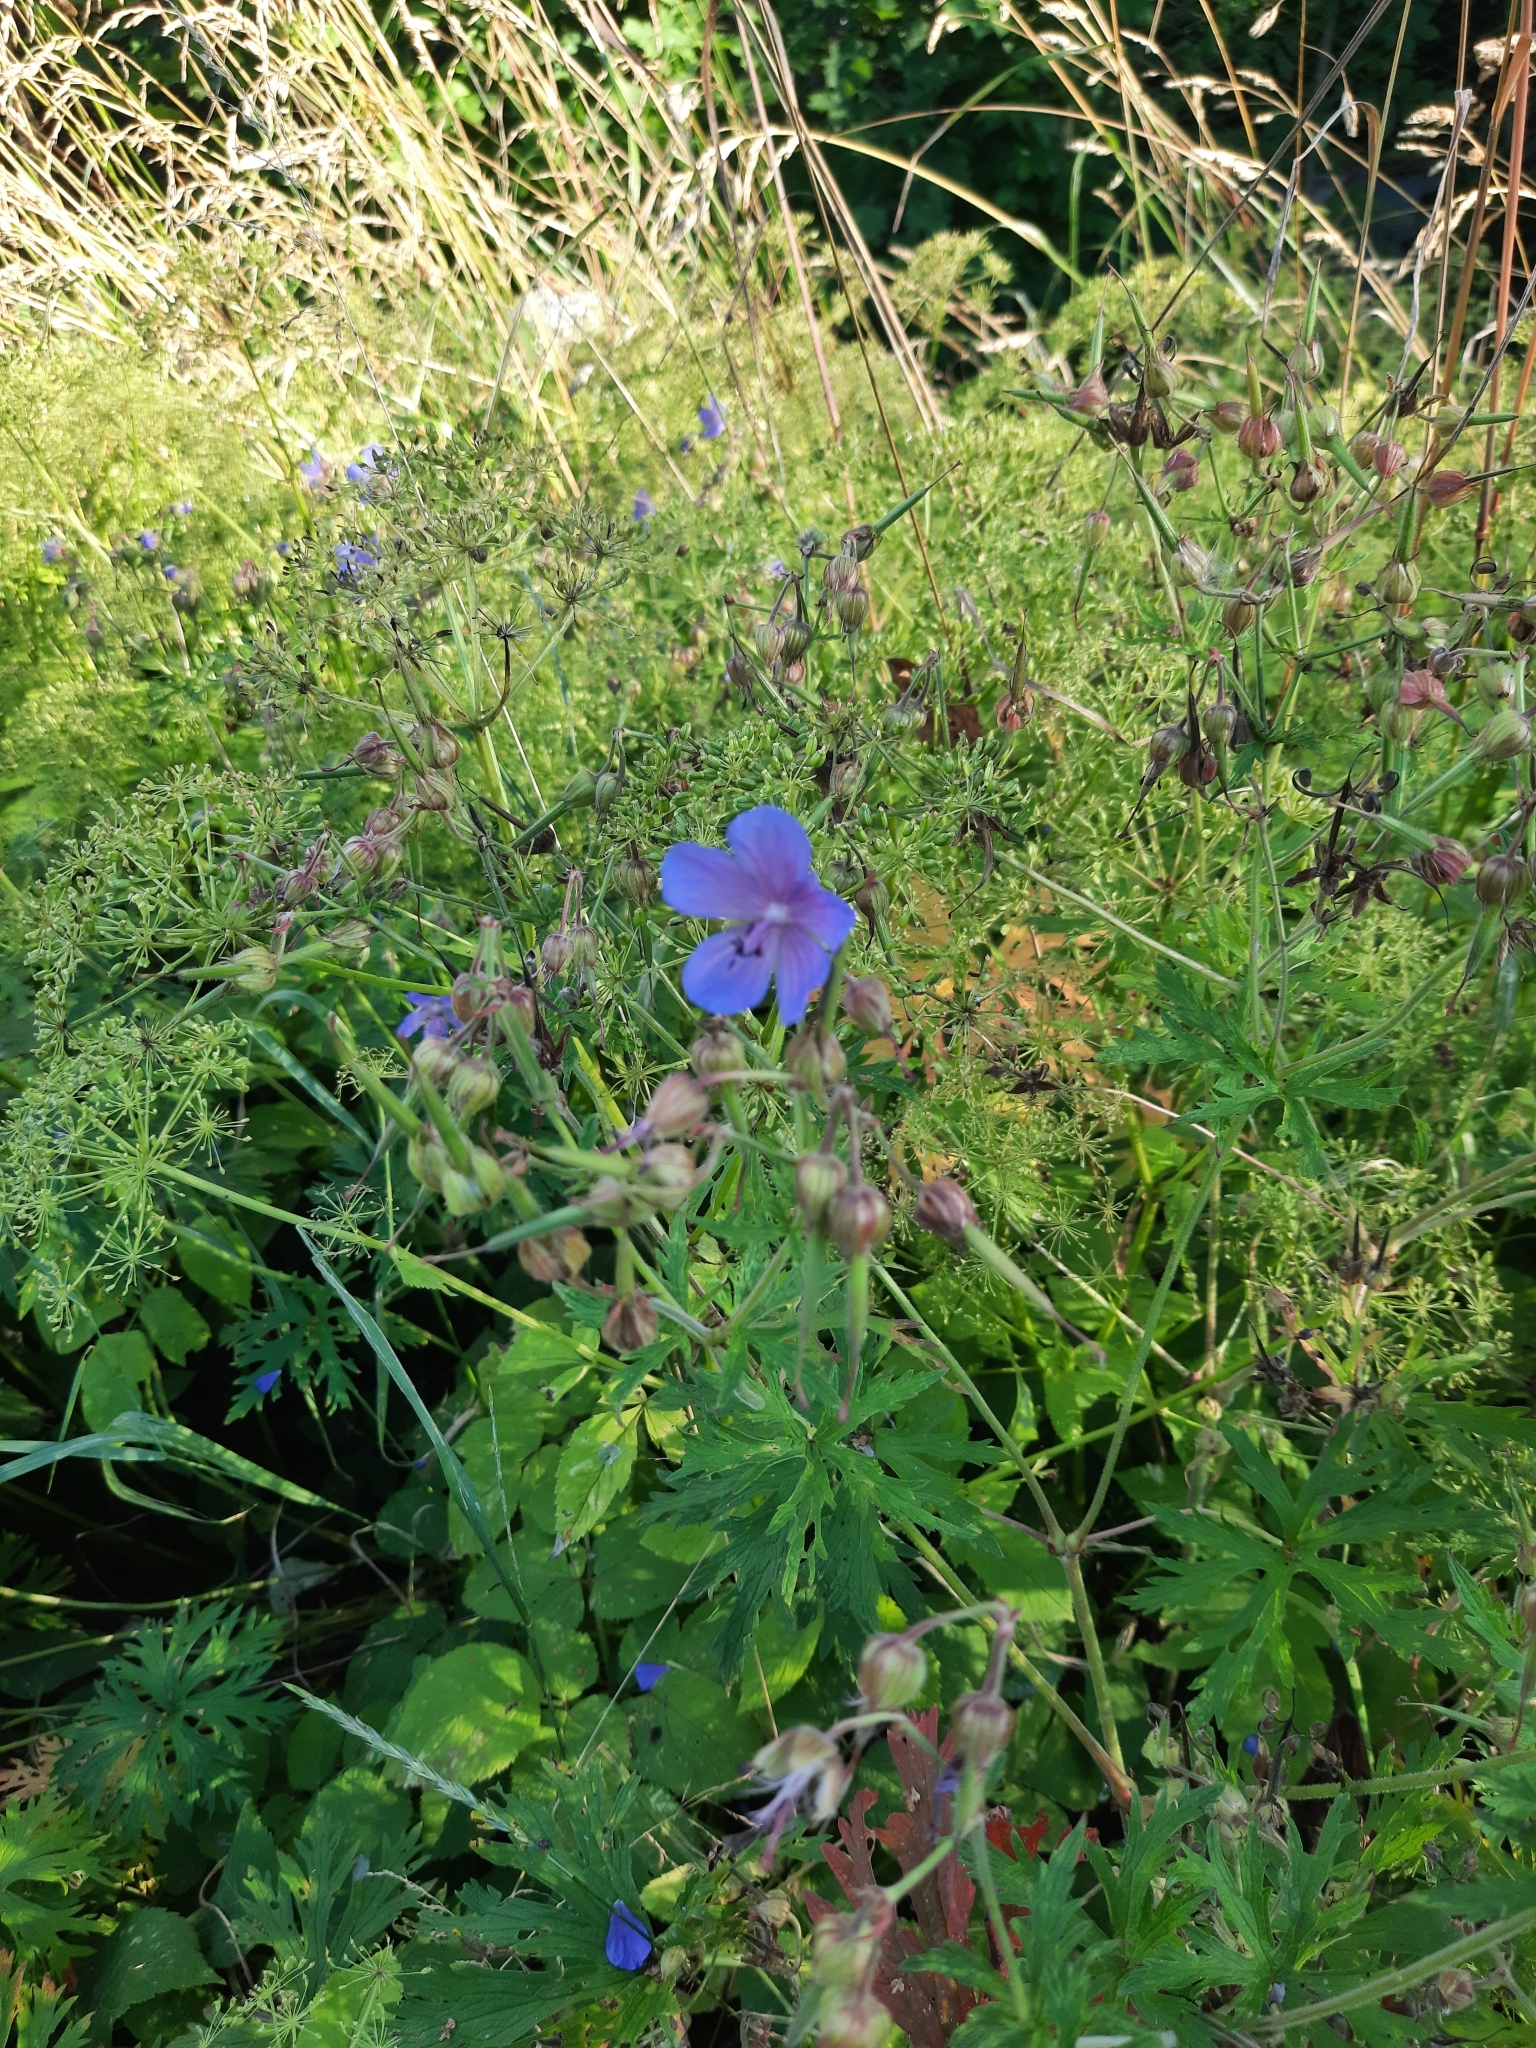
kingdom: Plantae
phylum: Tracheophyta
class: Magnoliopsida
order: Geraniales
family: Geraniaceae
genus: Geranium
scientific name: Geranium pratense
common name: Meadow crane's-bill
